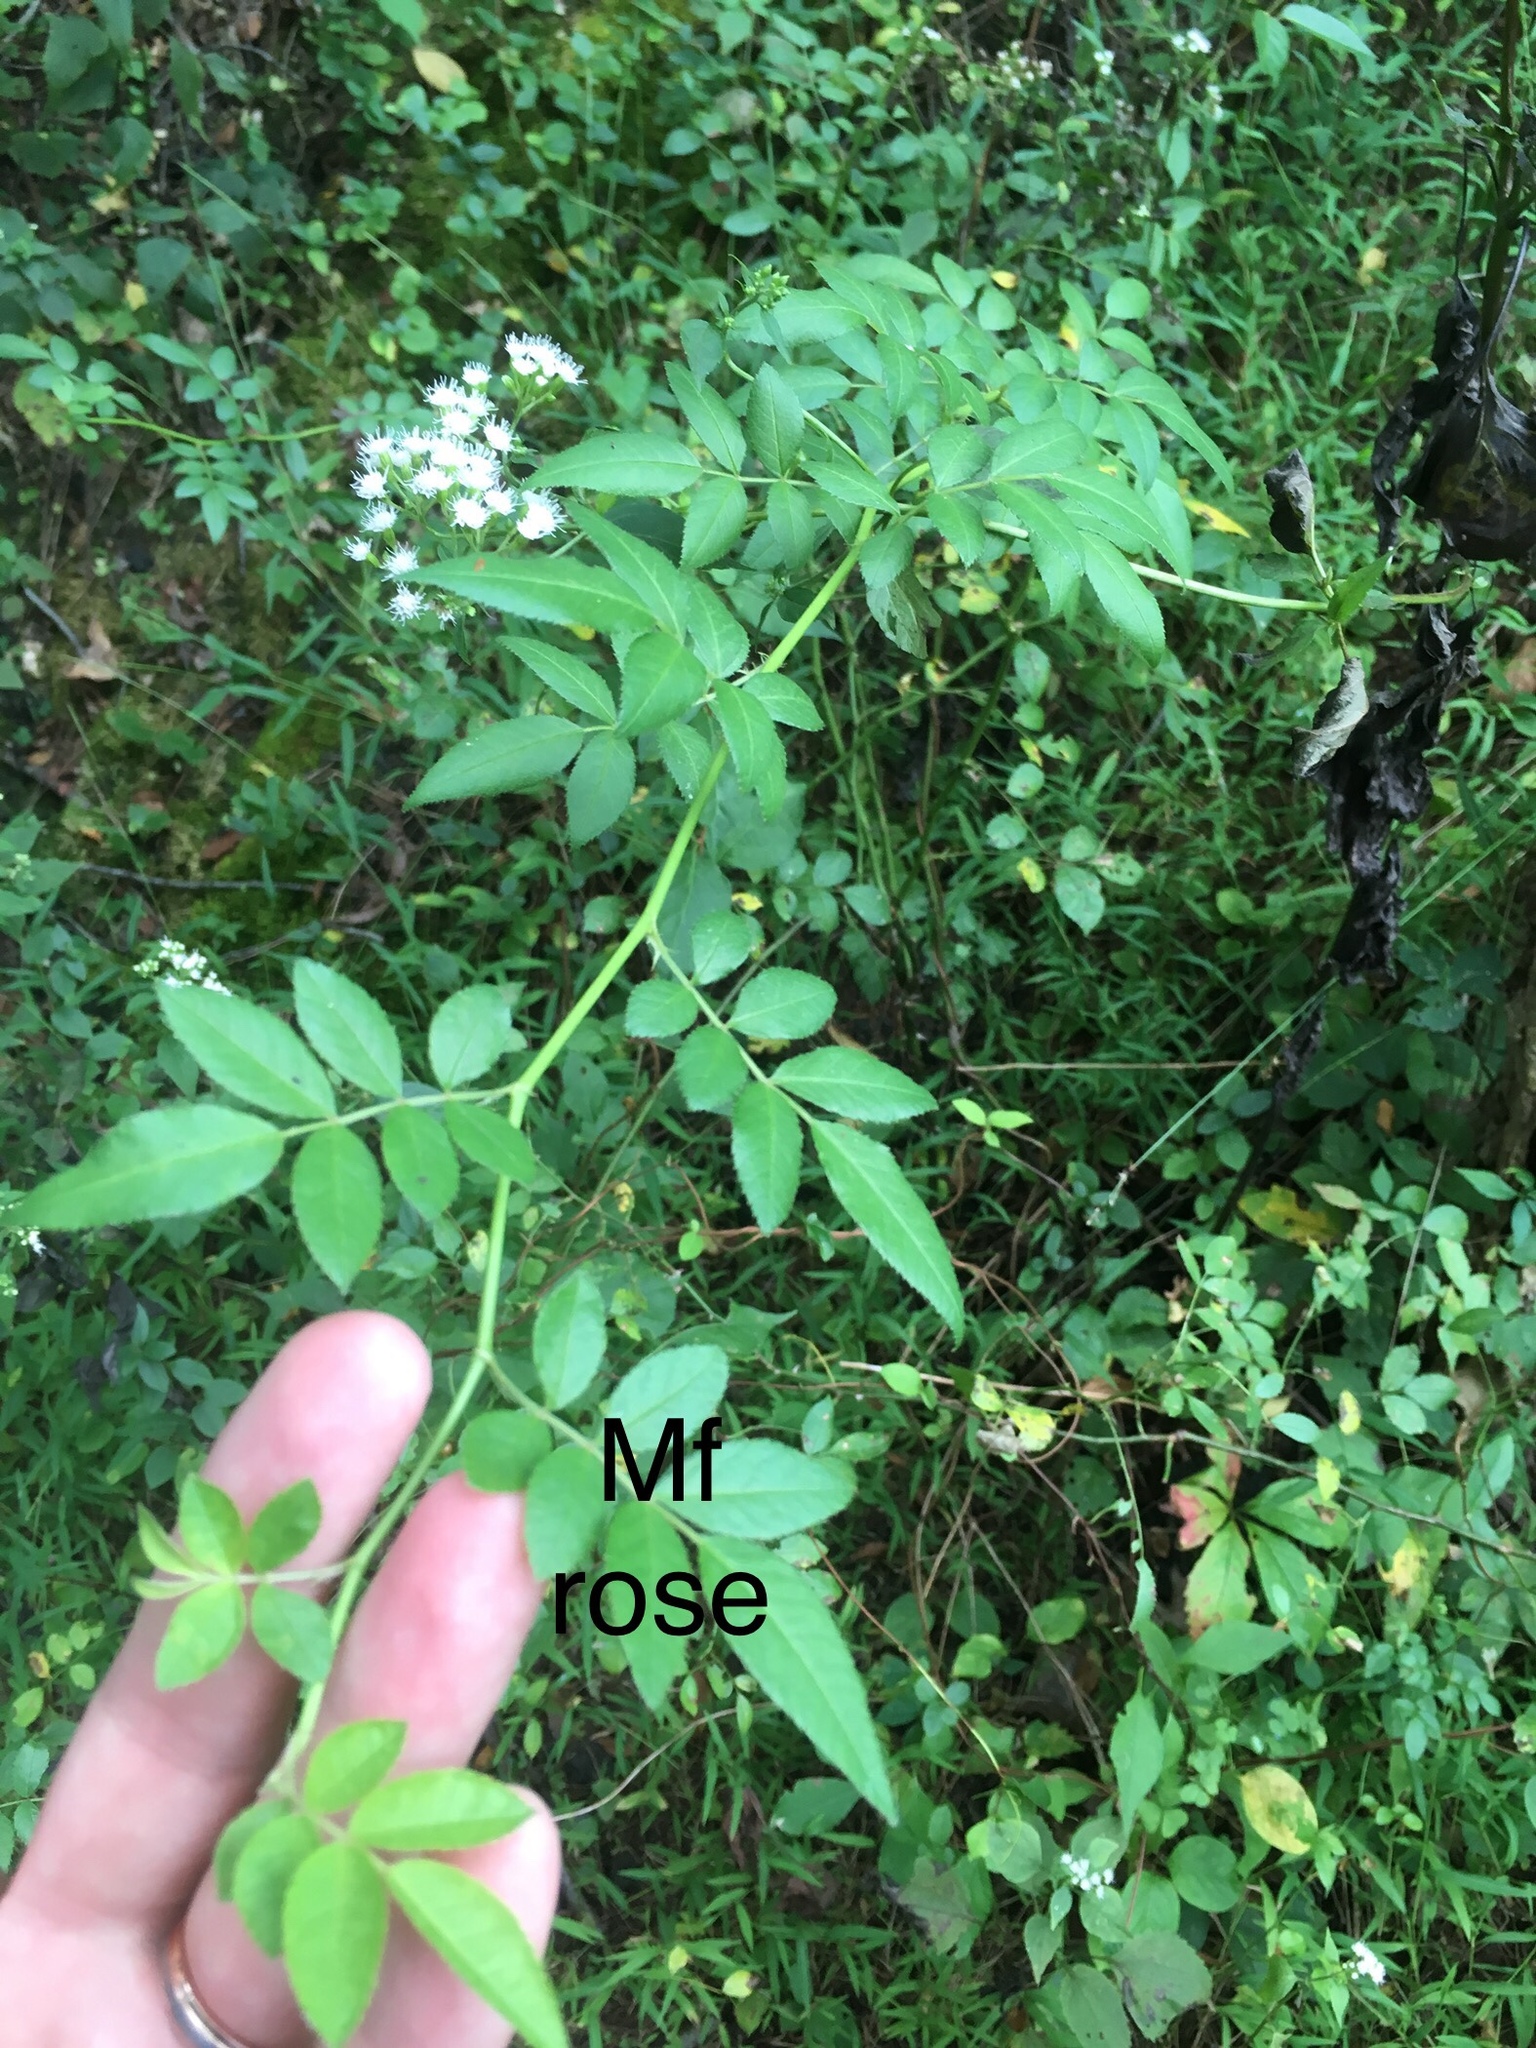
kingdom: Plantae
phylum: Tracheophyta
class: Magnoliopsida
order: Rosales
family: Rosaceae
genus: Rosa
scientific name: Rosa multiflora
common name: Multiflora rose
